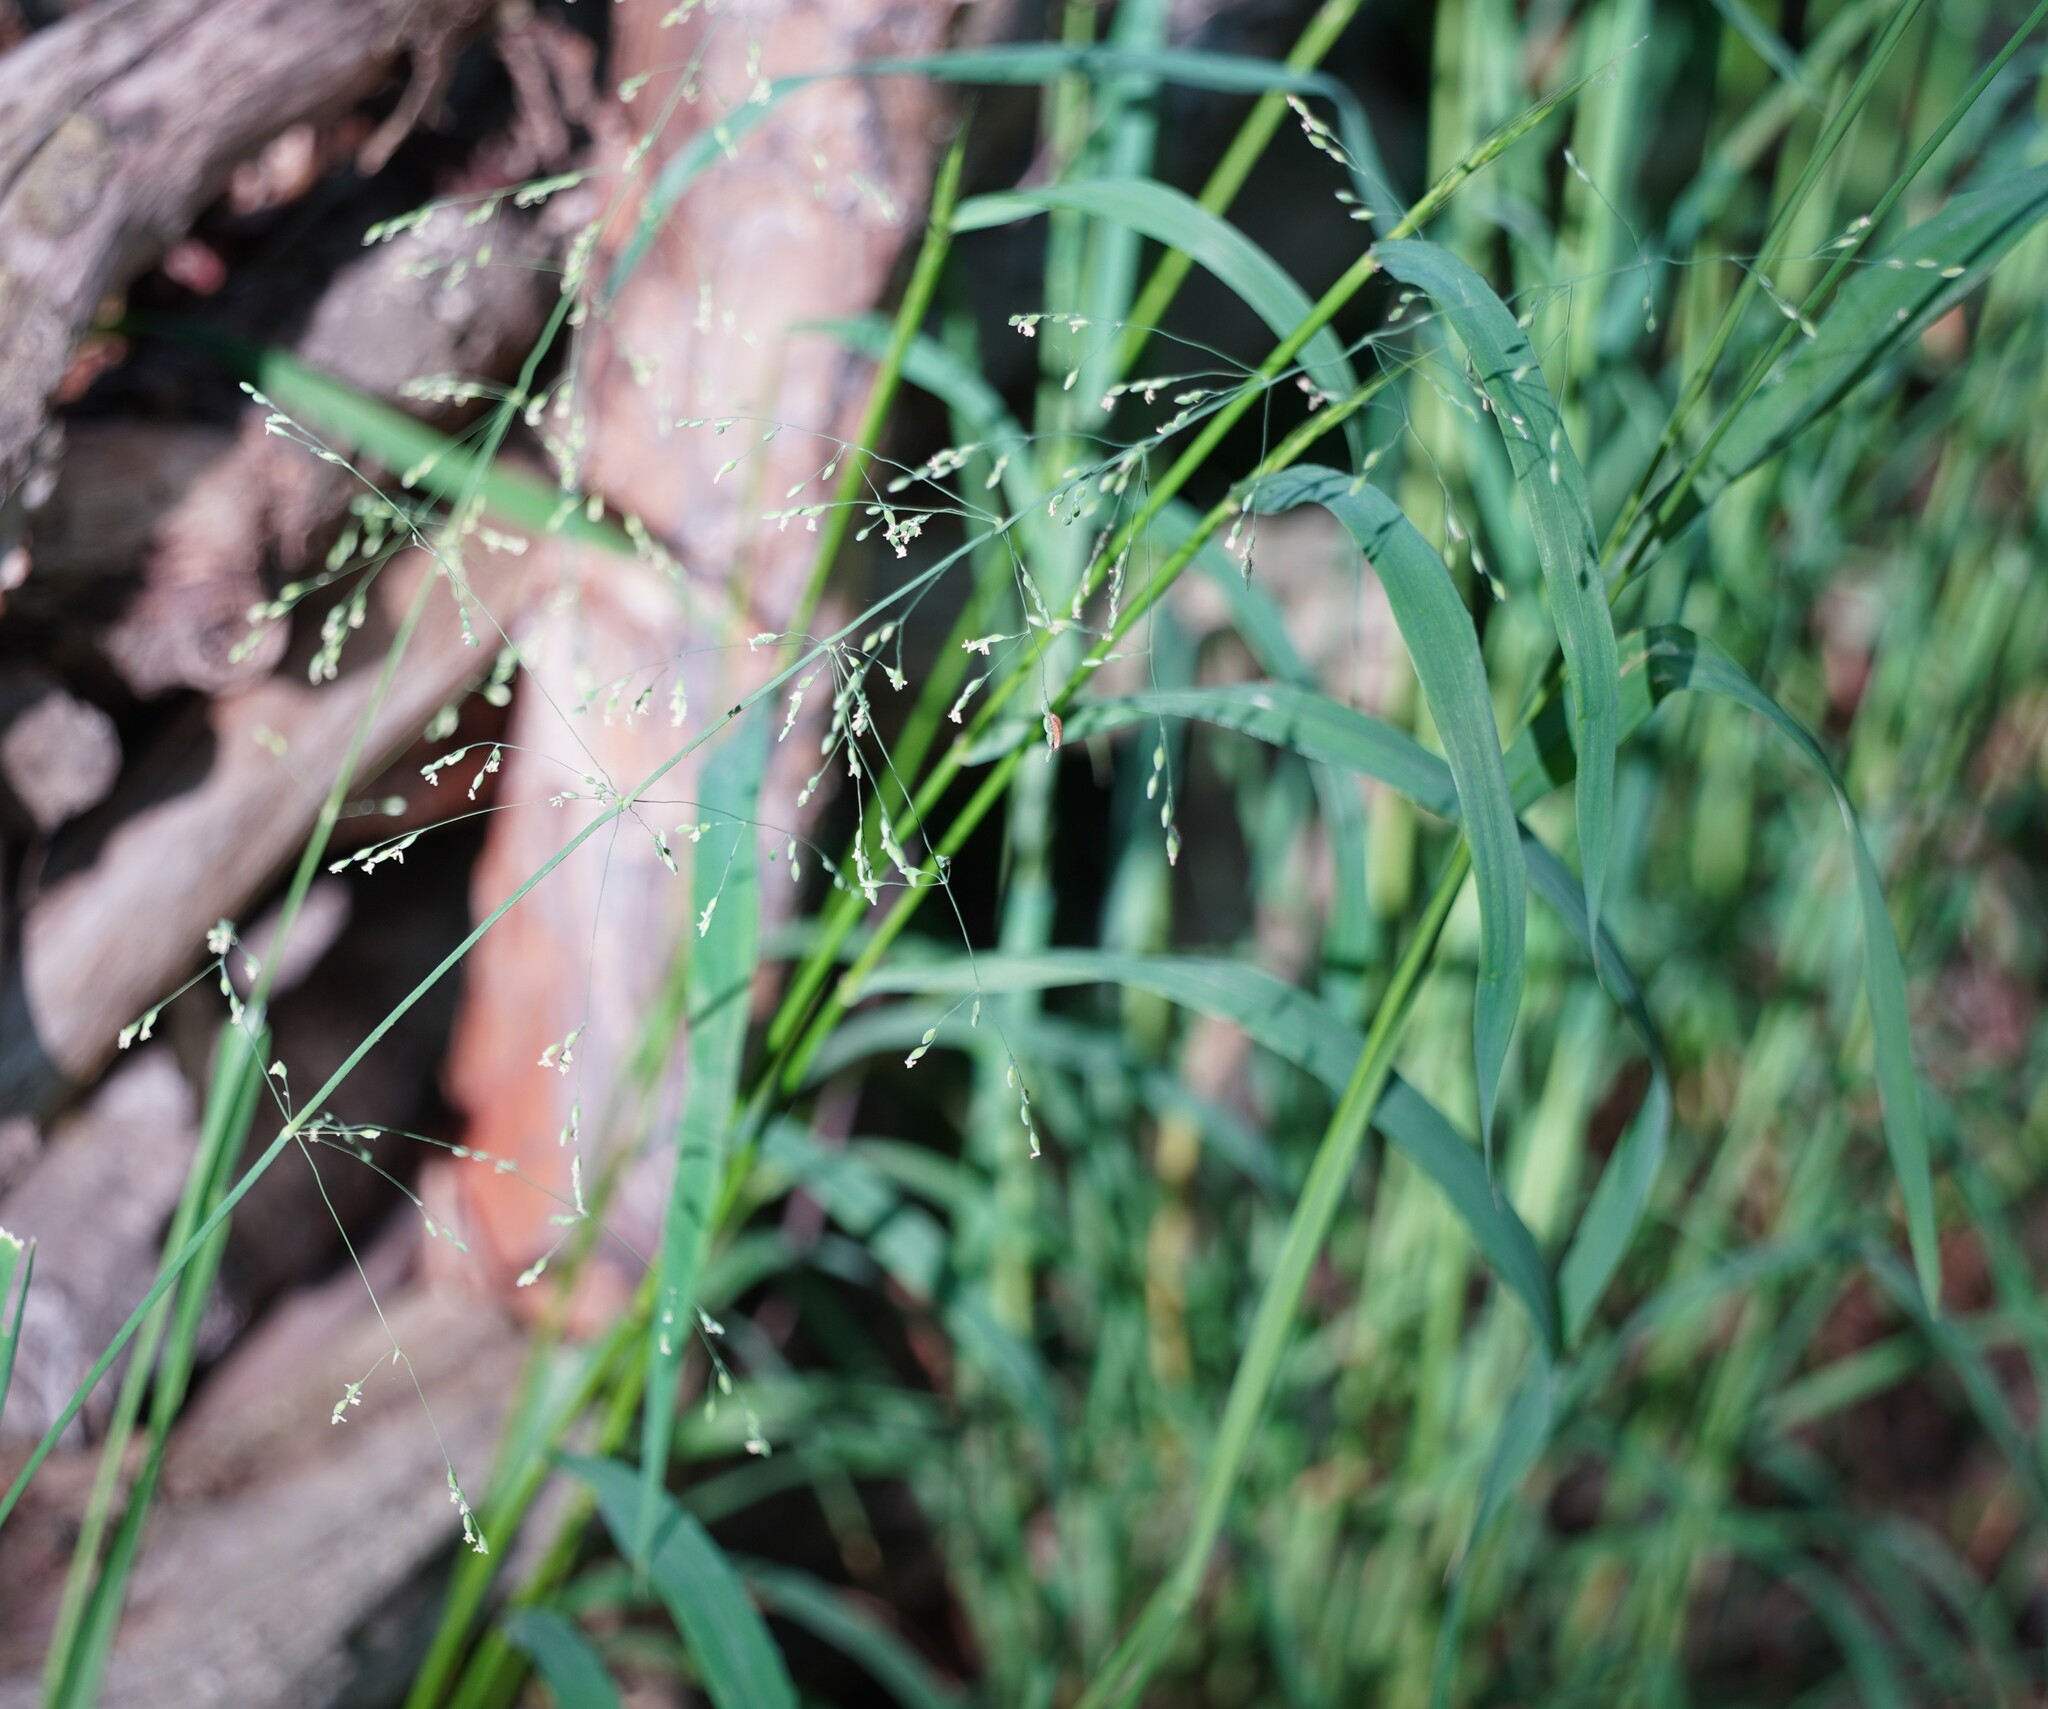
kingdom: Plantae
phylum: Tracheophyta
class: Liliopsida
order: Poales
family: Poaceae
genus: Milium
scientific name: Milium effusum
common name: Wood millet
